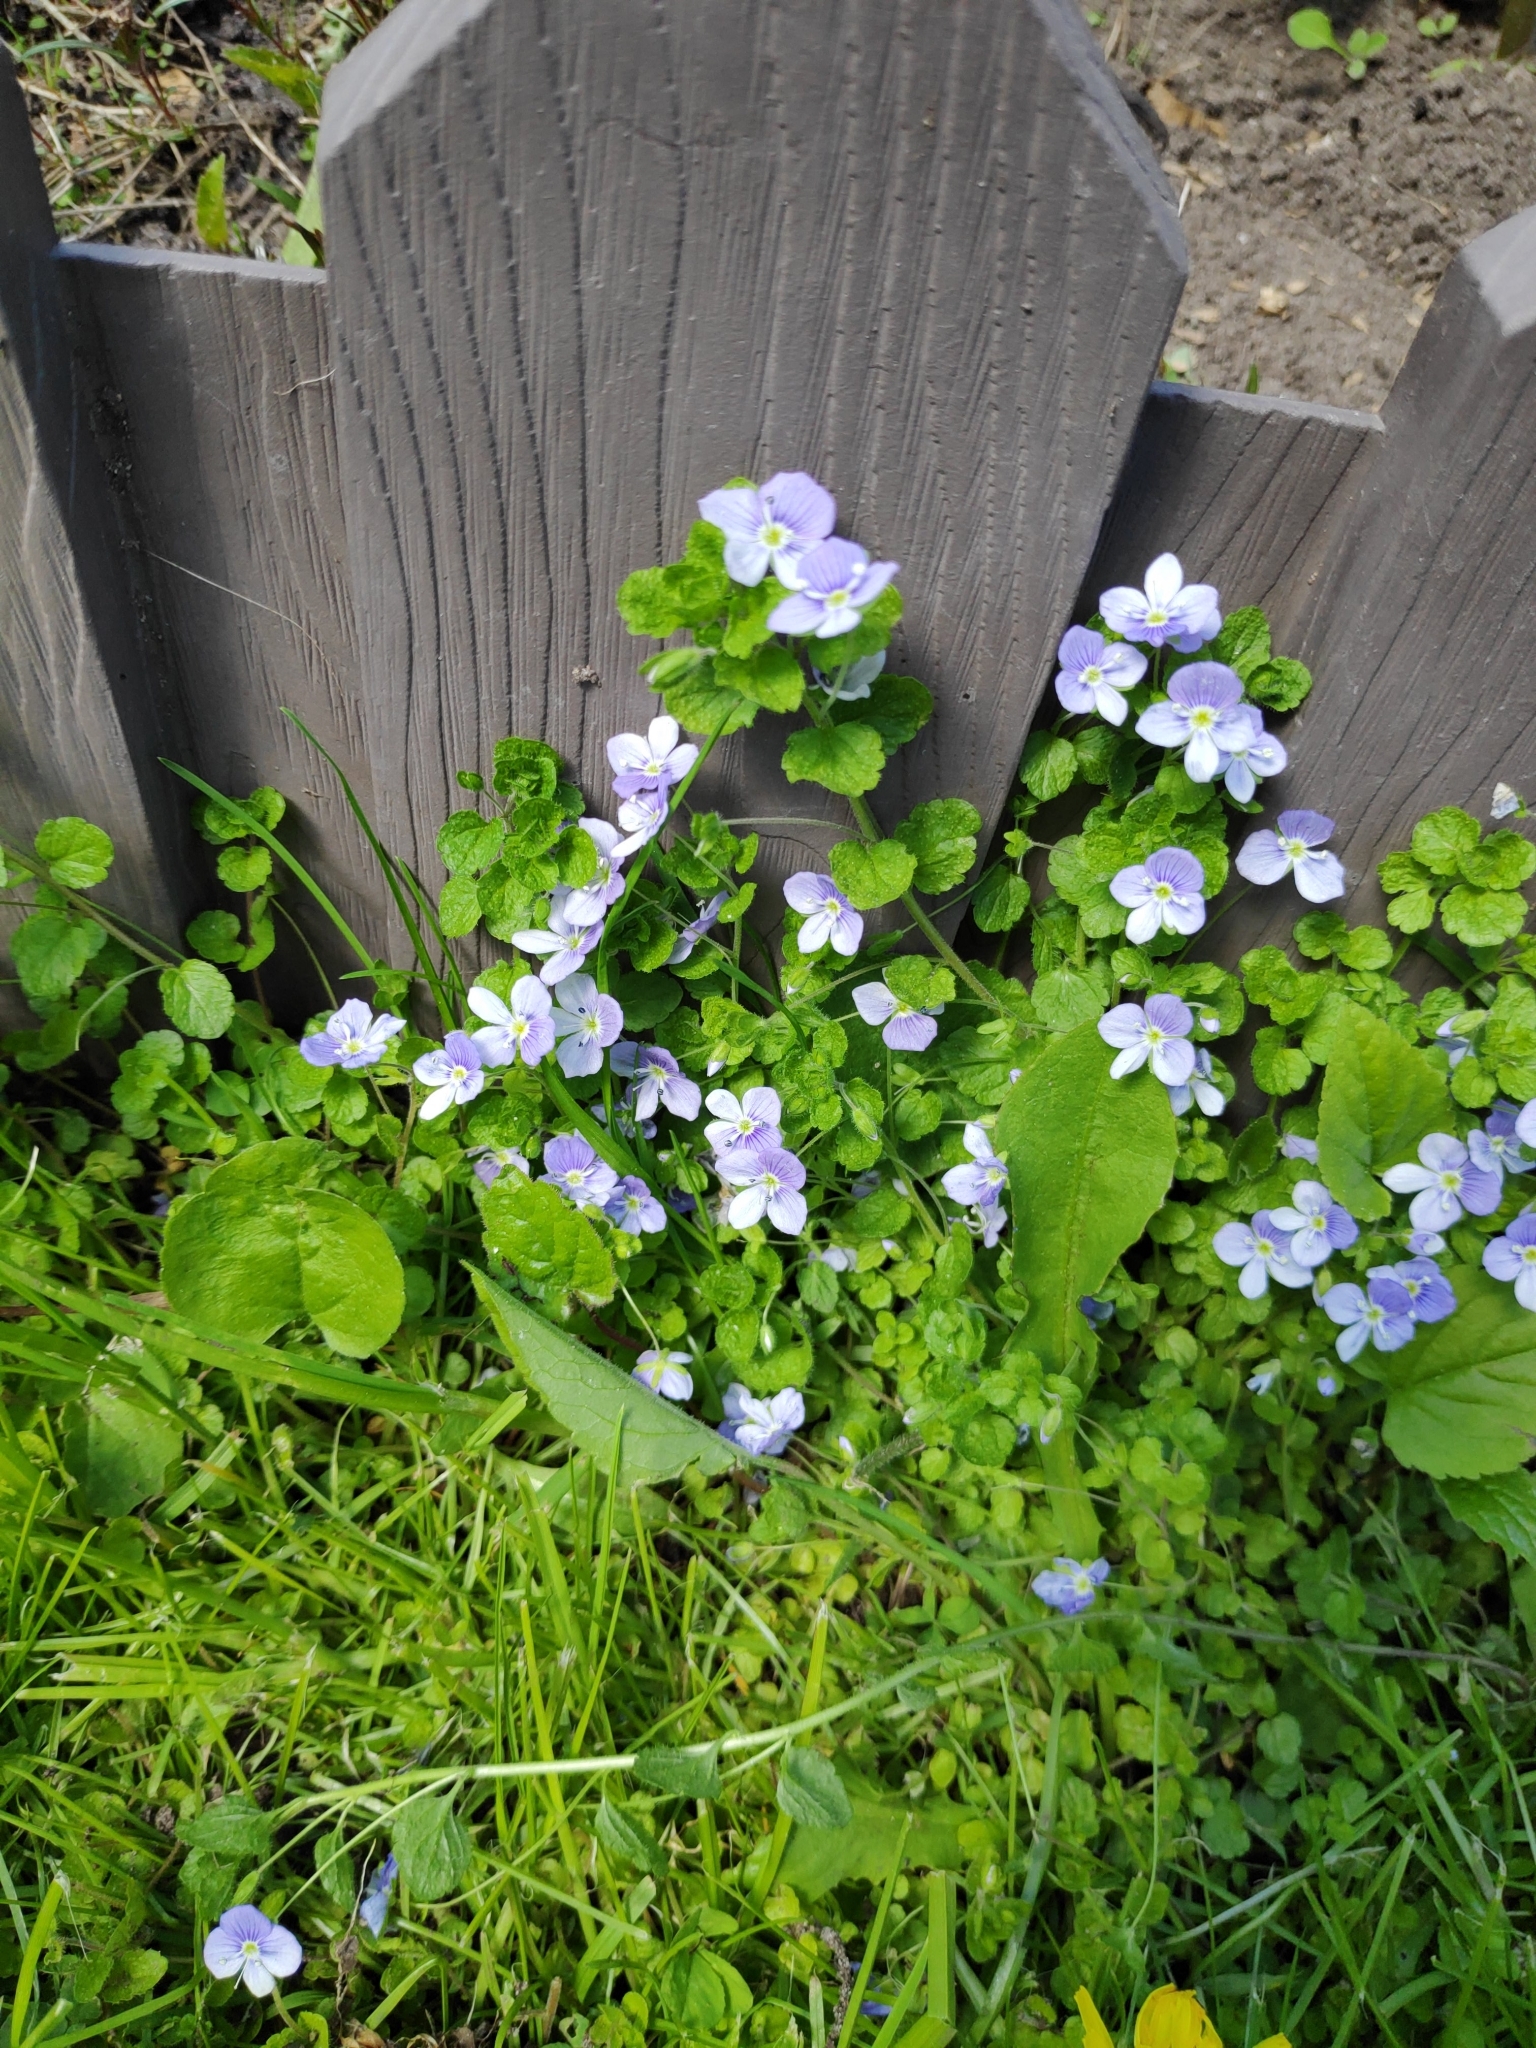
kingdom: Plantae
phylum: Tracheophyta
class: Magnoliopsida
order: Lamiales
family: Plantaginaceae
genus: Veronica
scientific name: Veronica filiformis
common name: Slender speedwell
